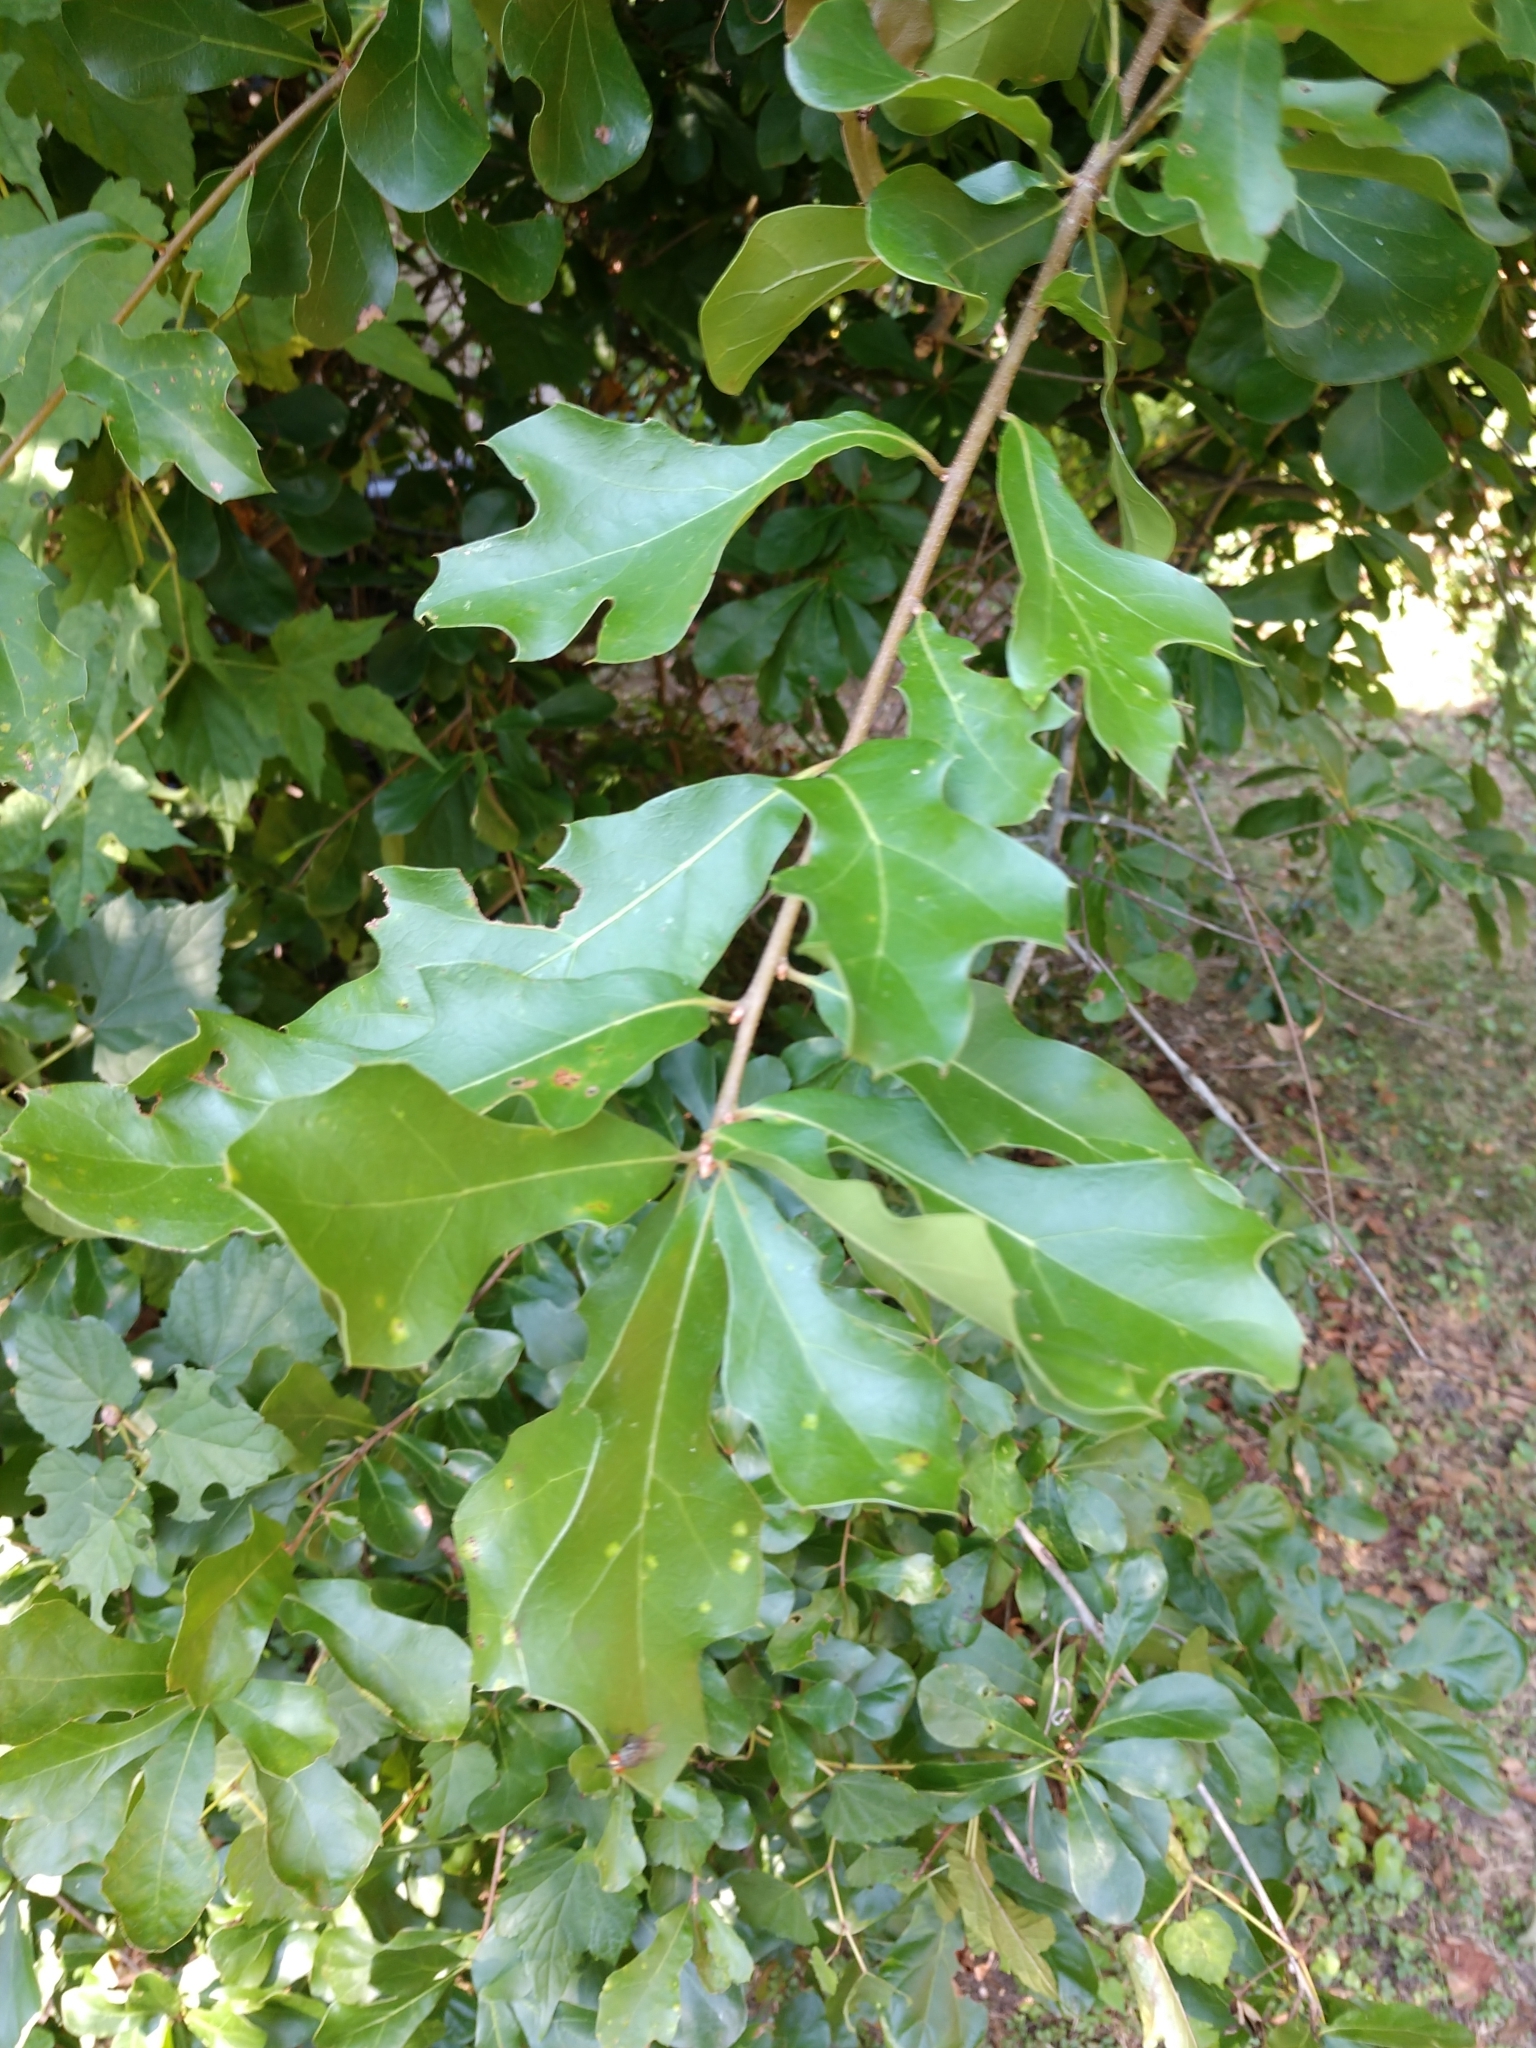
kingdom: Plantae
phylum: Tracheophyta
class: Magnoliopsida
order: Fagales
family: Fagaceae
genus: Quercus
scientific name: Quercus nigra
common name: Water oak
